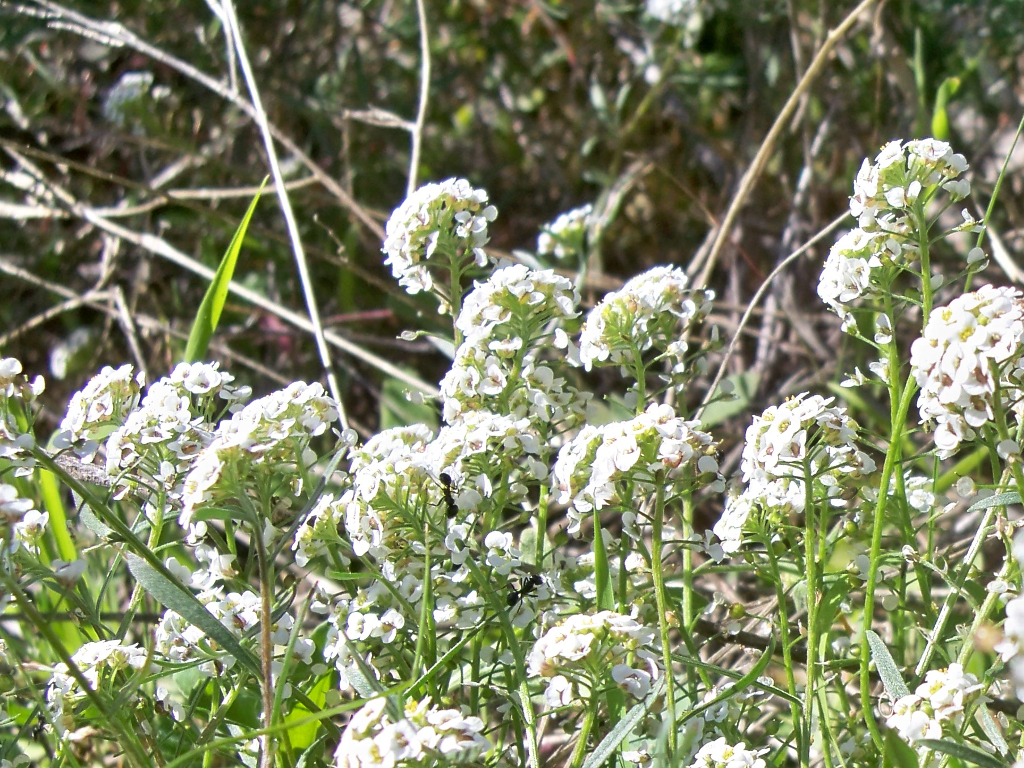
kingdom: Plantae
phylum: Tracheophyta
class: Magnoliopsida
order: Brassicales
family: Brassicaceae
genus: Lobularia
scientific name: Lobularia maritima
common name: Sweet alison
